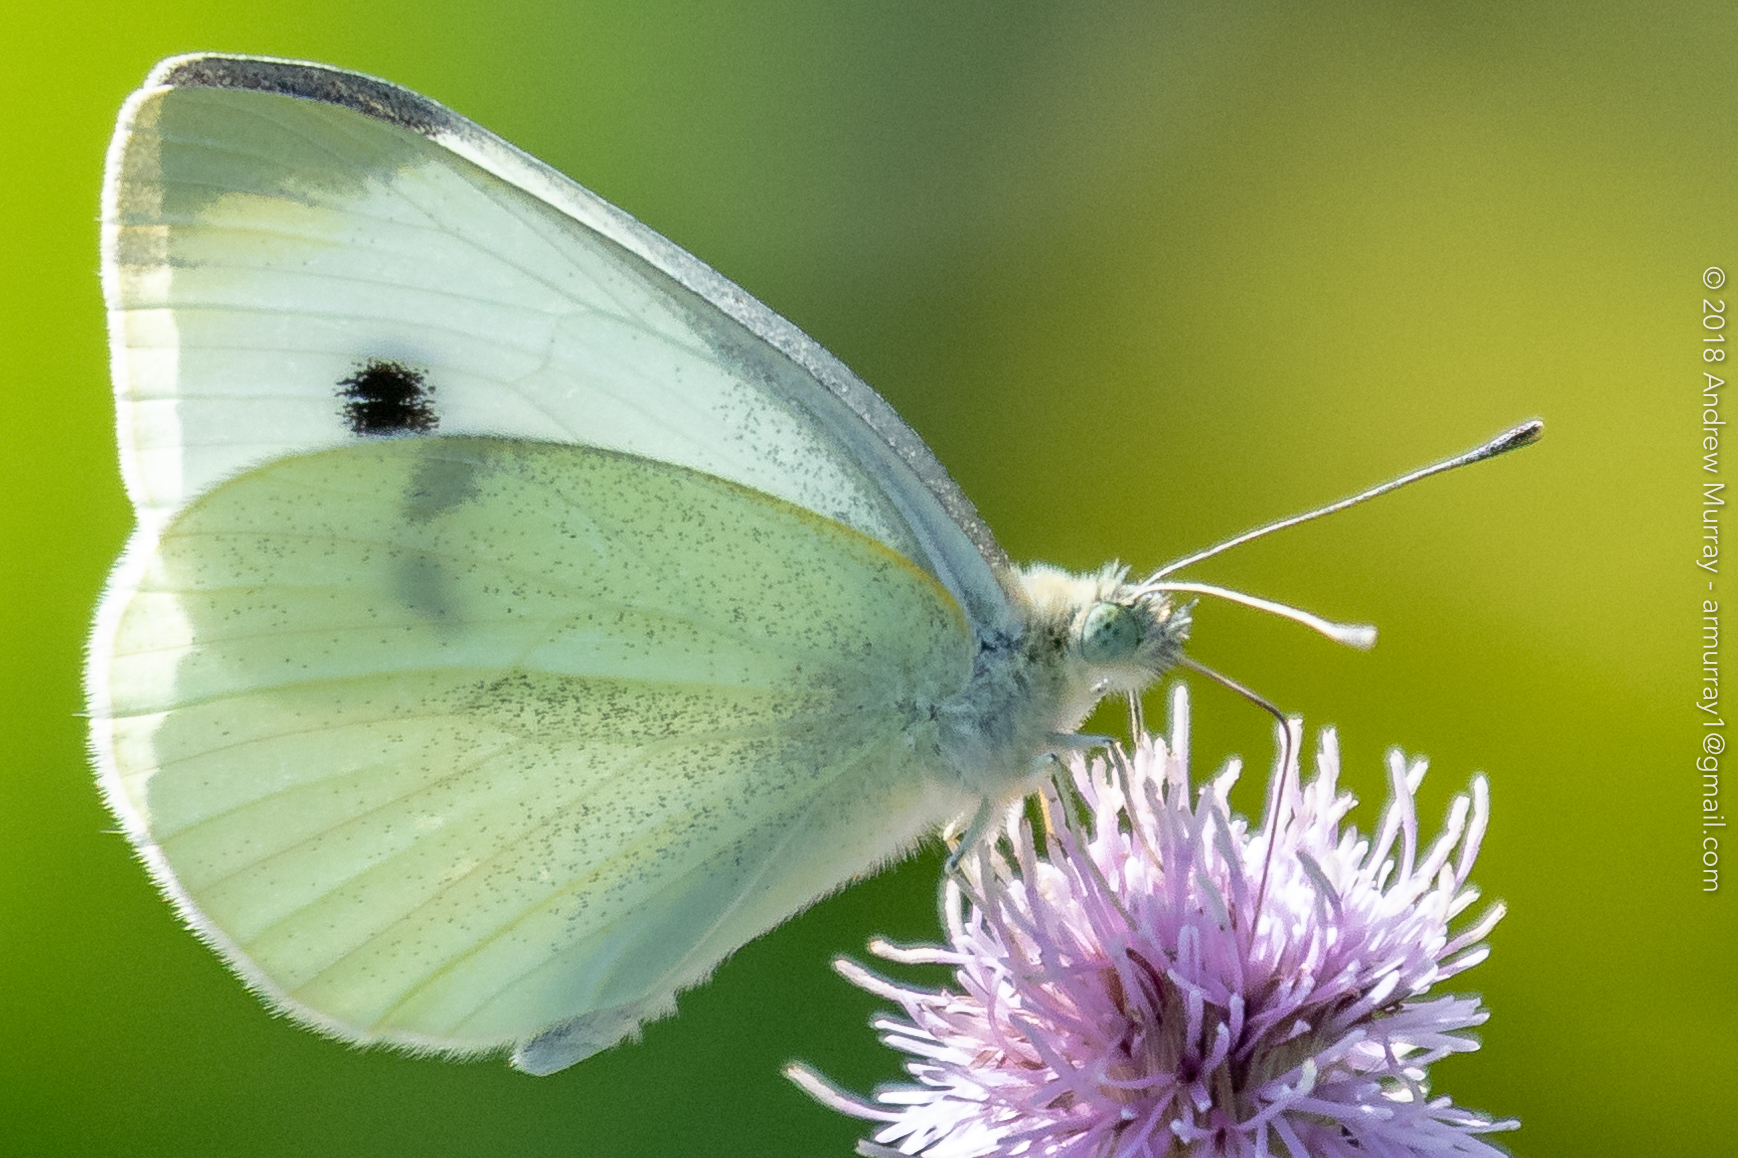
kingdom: Animalia
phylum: Arthropoda
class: Insecta
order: Lepidoptera
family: Pieridae
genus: Pieris
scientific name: Pieris rapae
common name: Small white
